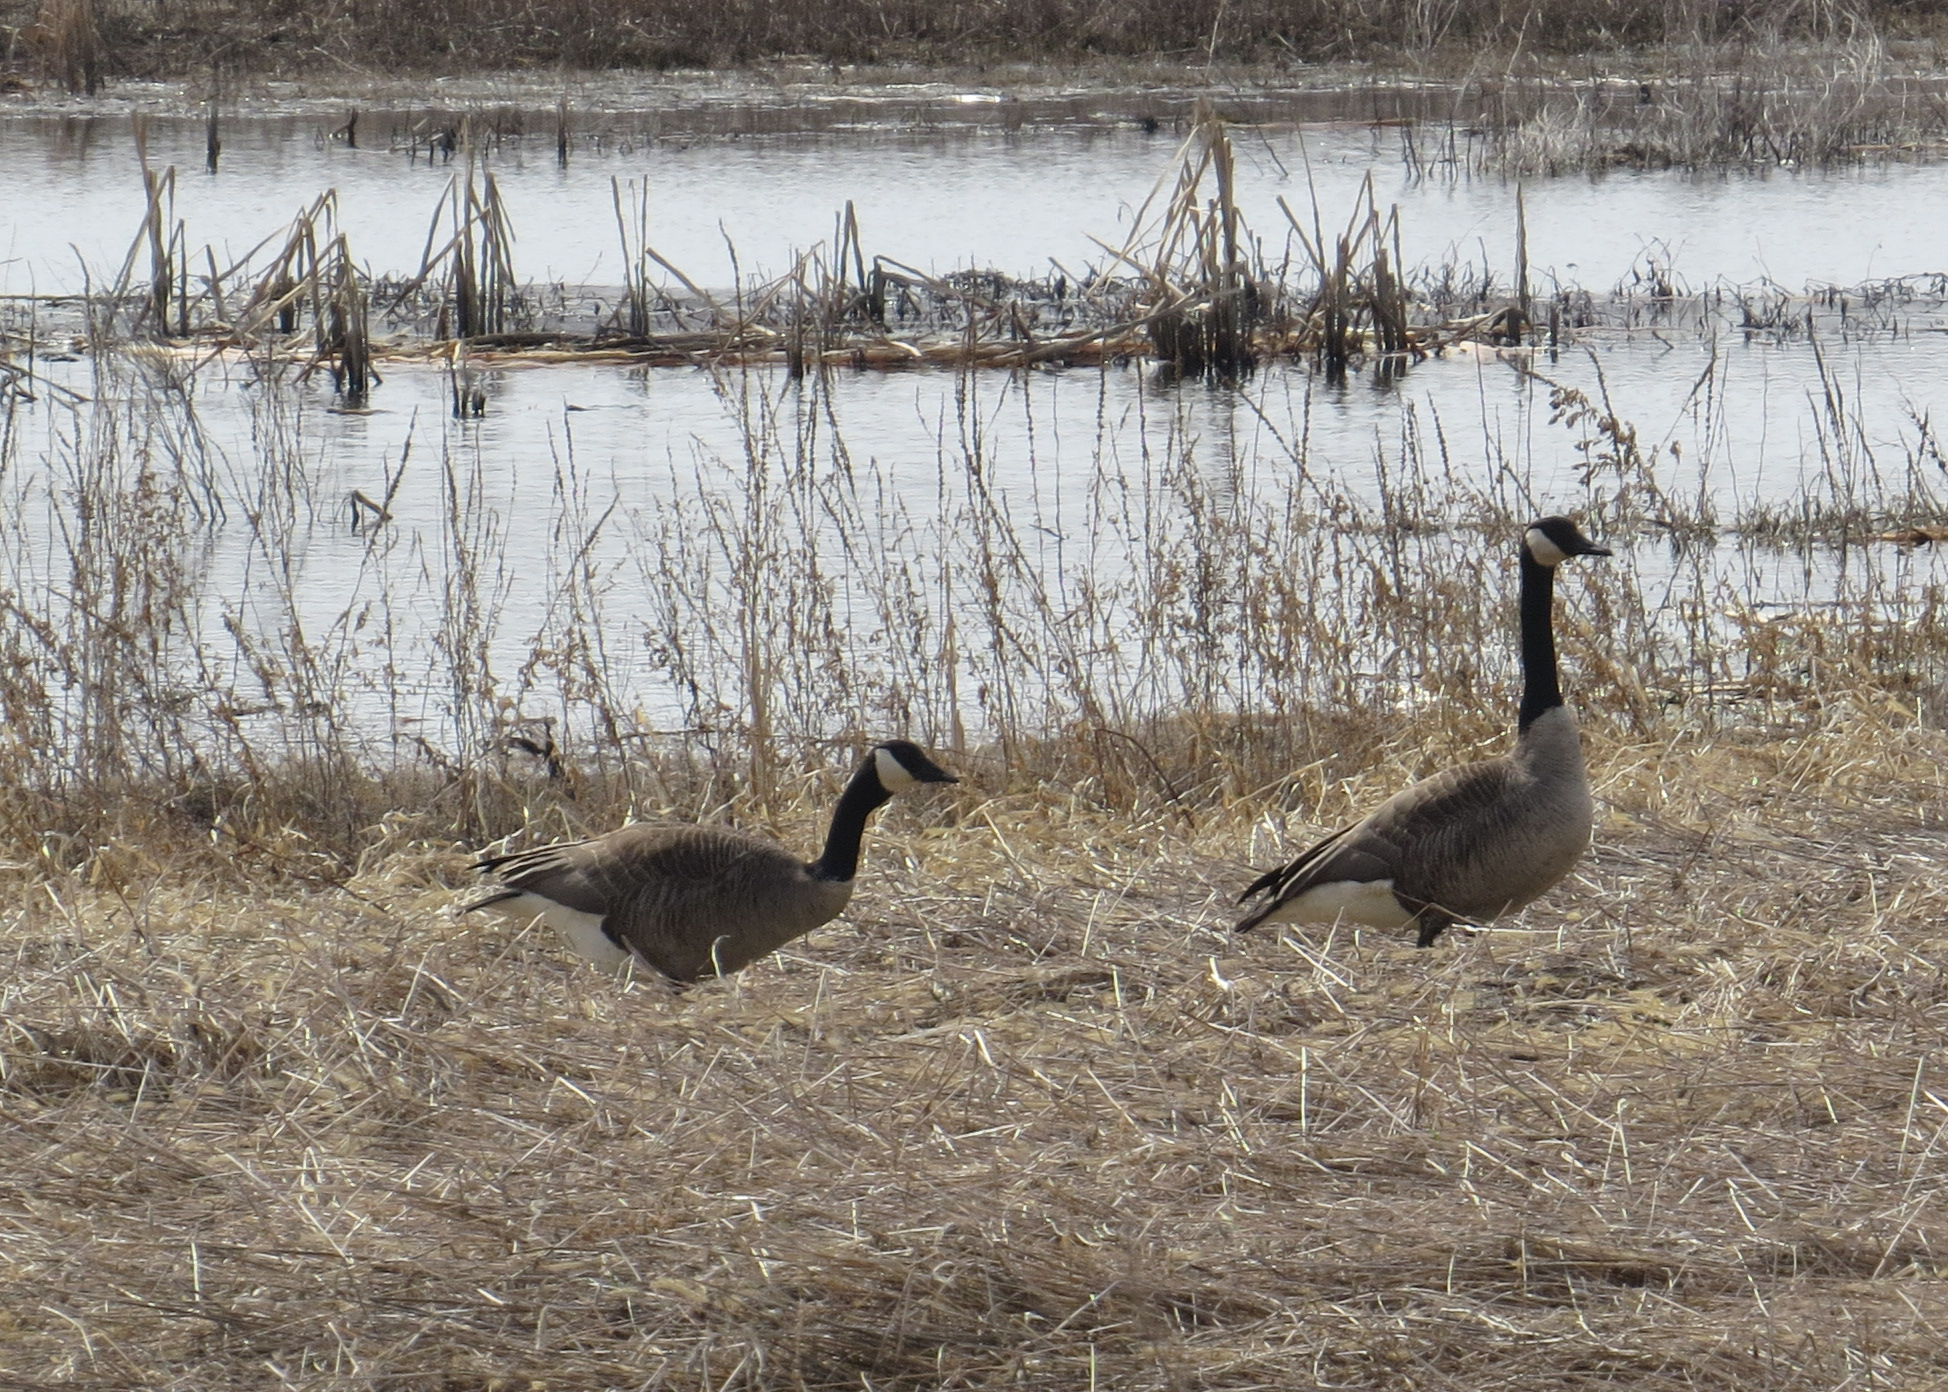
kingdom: Animalia
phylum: Chordata
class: Aves
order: Anseriformes
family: Anatidae
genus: Branta
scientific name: Branta canadensis
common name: Canada goose
